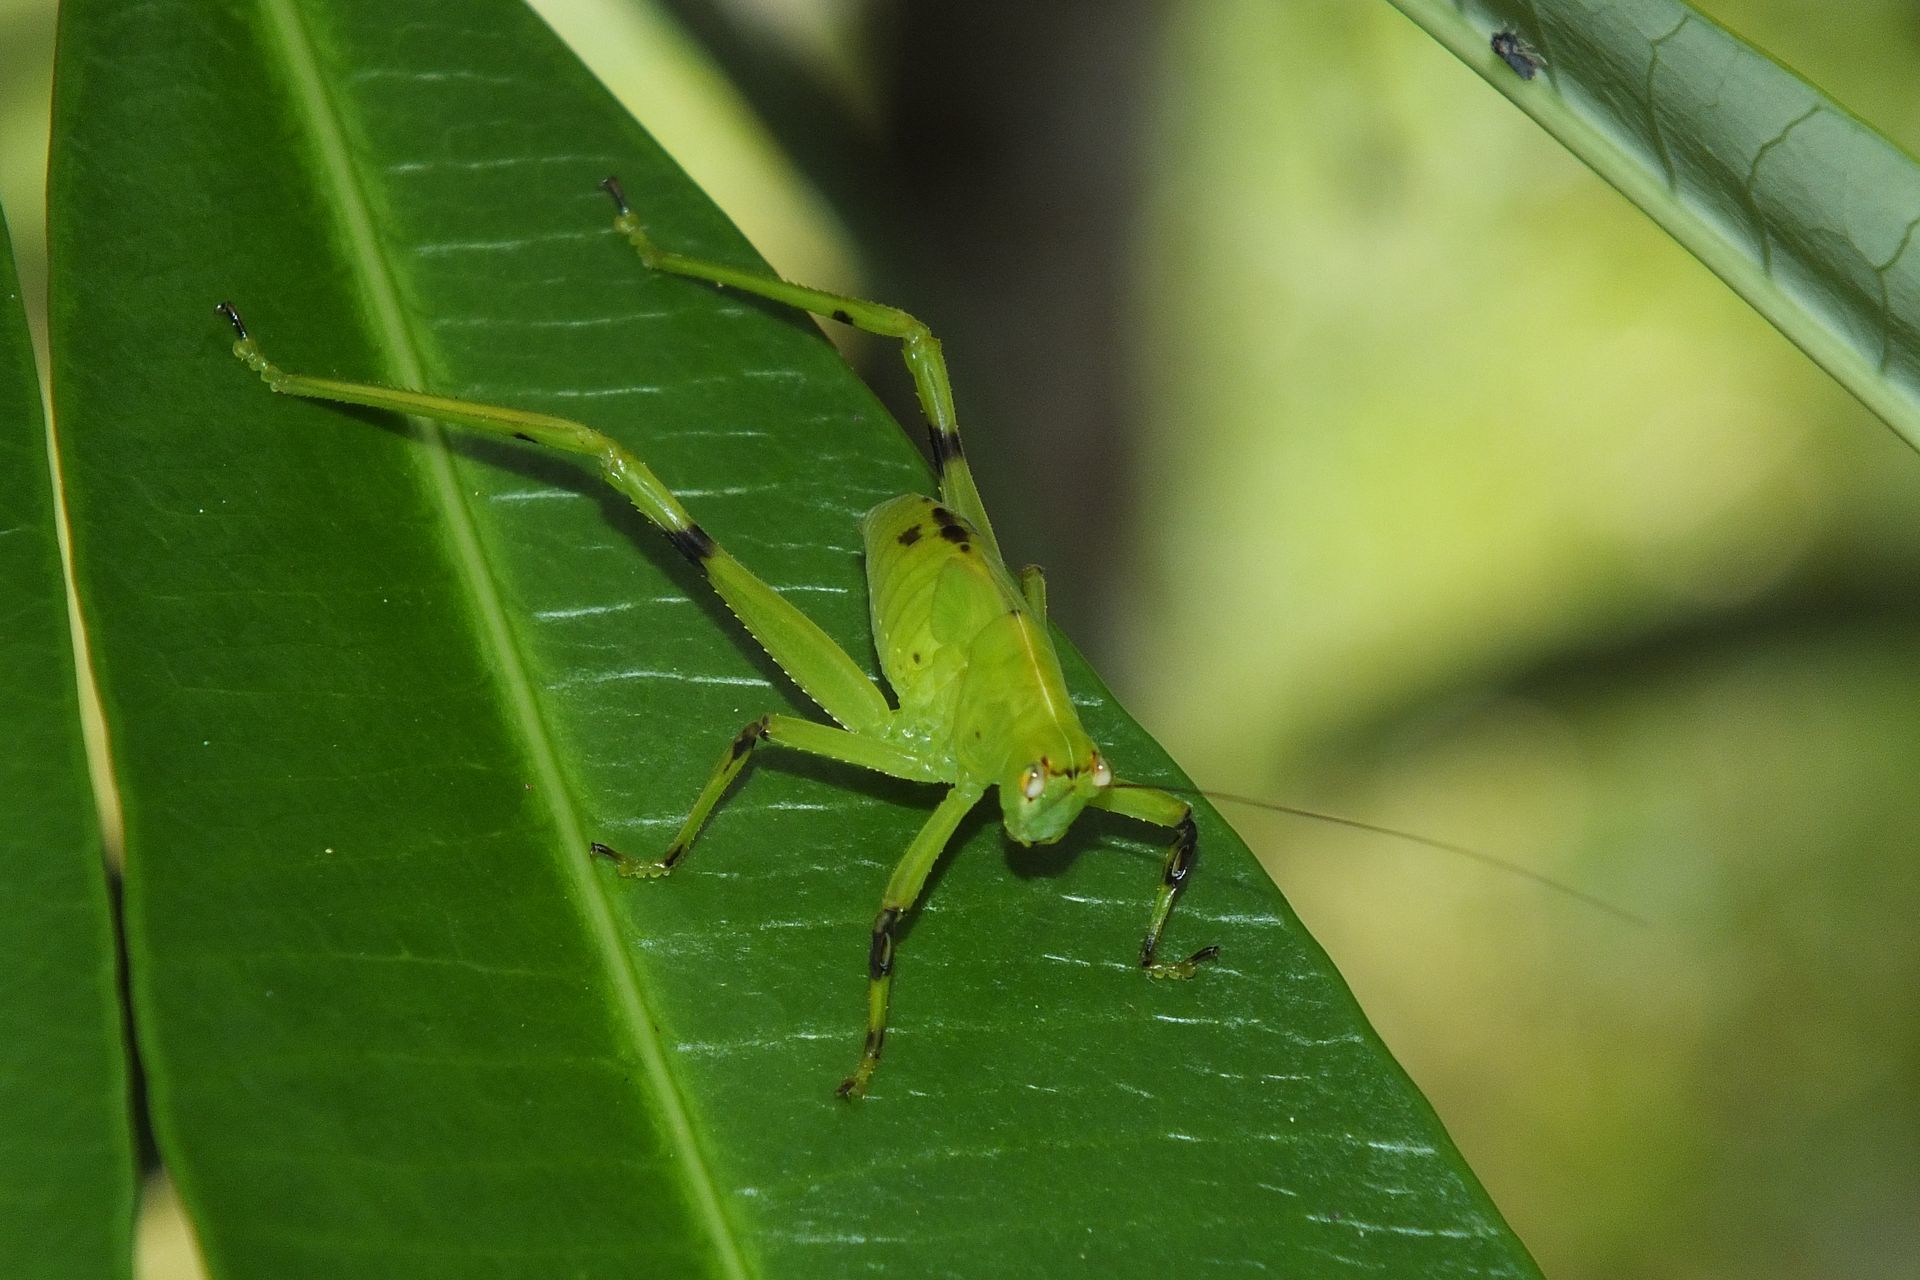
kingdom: Animalia
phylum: Arthropoda
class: Insecta
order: Orthoptera
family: Tettigoniidae
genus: Paracaedicia
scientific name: Paracaedicia serrata
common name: Serrated bush katydid
